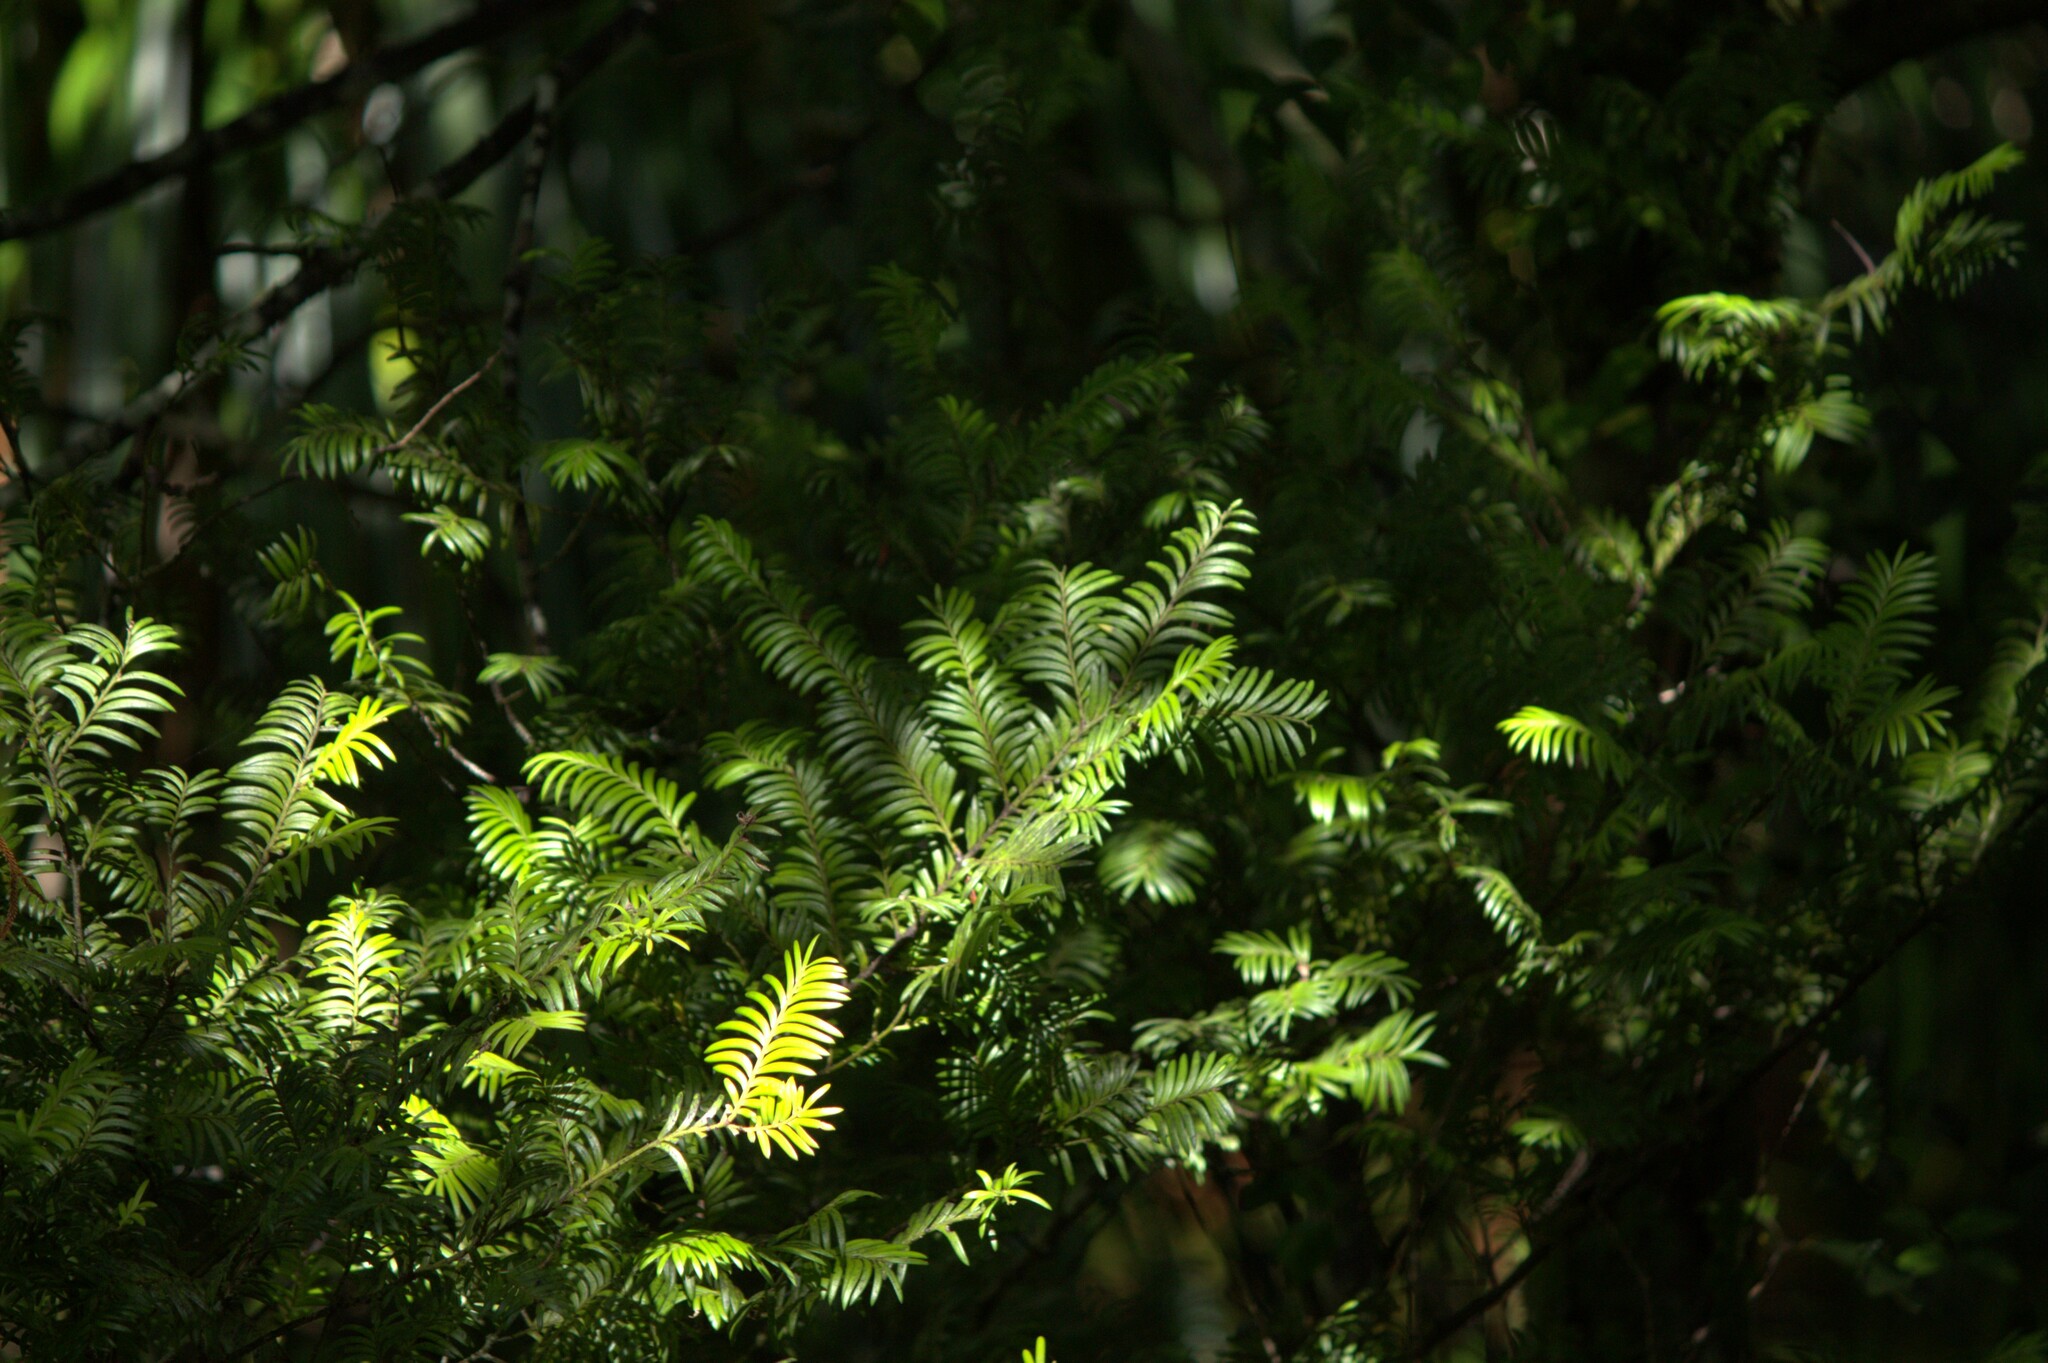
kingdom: Plantae
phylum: Tracheophyta
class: Pinopsida
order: Pinales
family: Podocarpaceae
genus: Prumnopitys
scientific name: Prumnopitys ferruginea
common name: Brown pine
